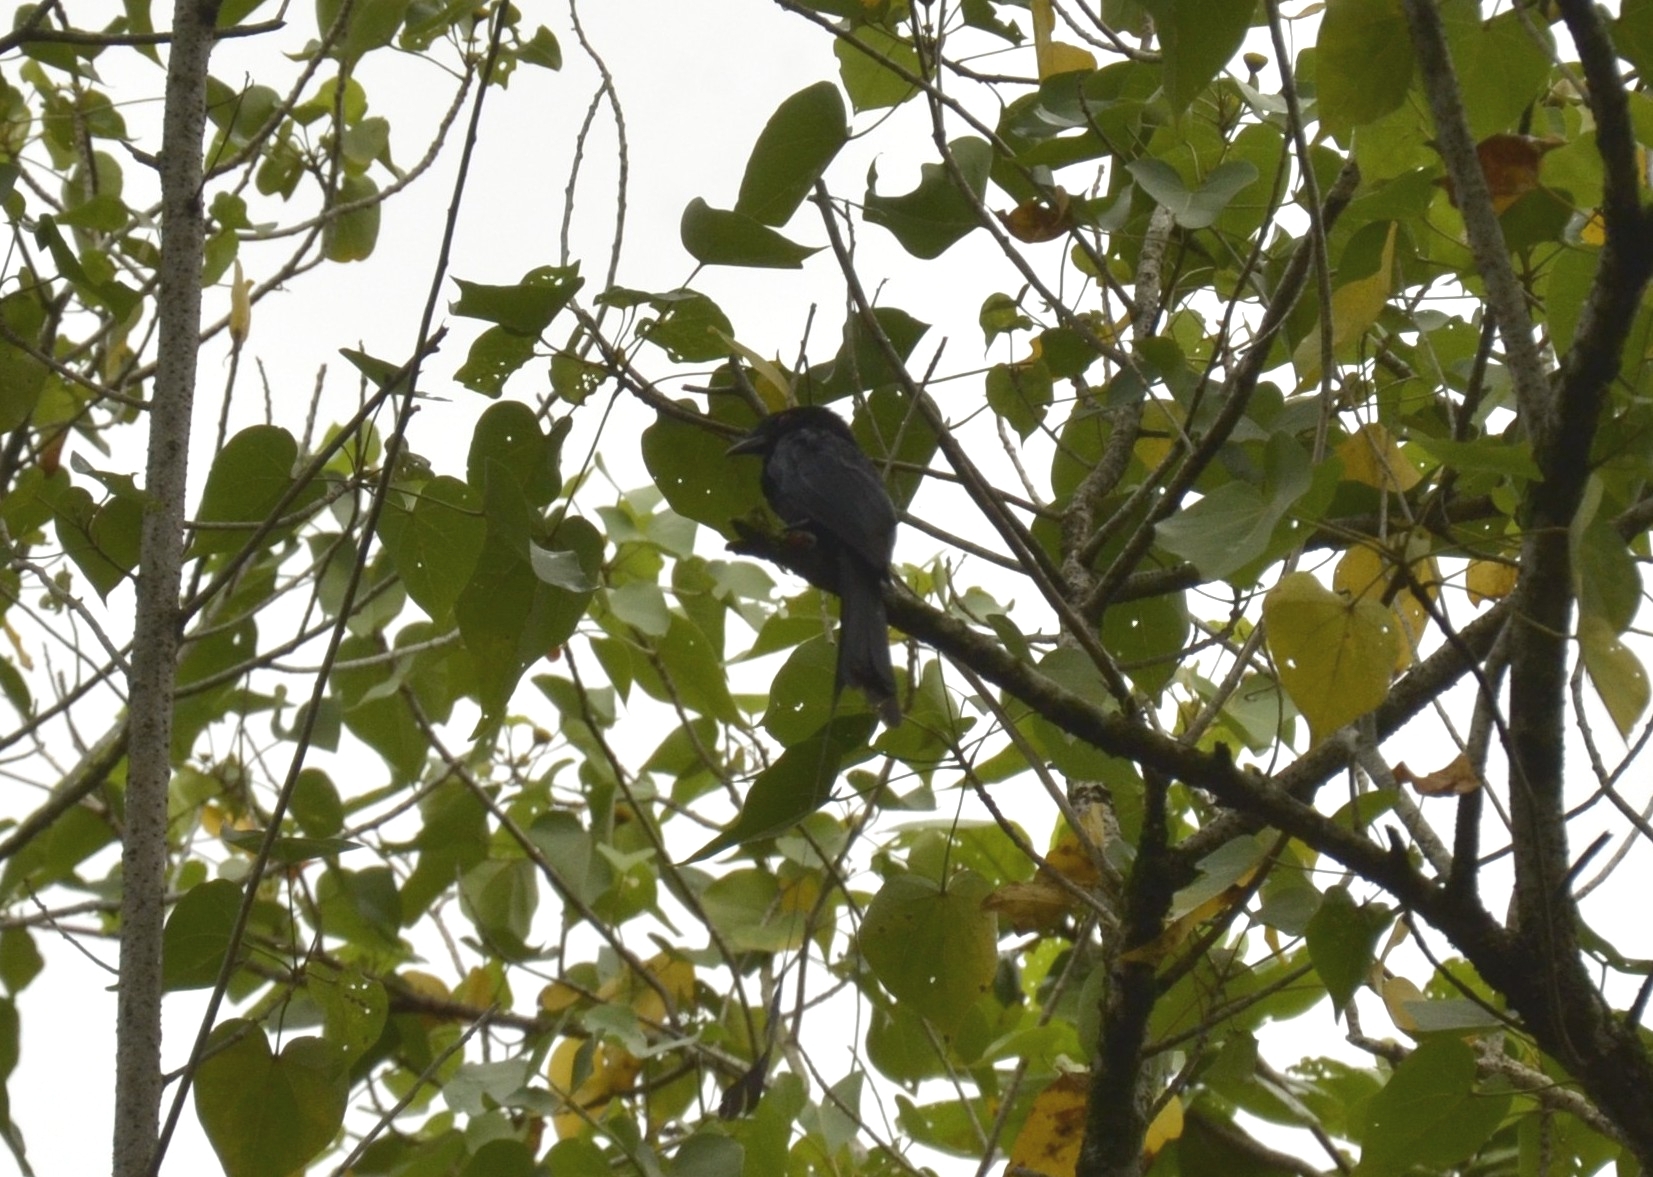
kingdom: Animalia
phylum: Chordata
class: Aves
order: Passeriformes
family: Dicruridae
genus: Dicrurus
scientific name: Dicrurus paradiseus
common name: Greater racket-tailed drongo
